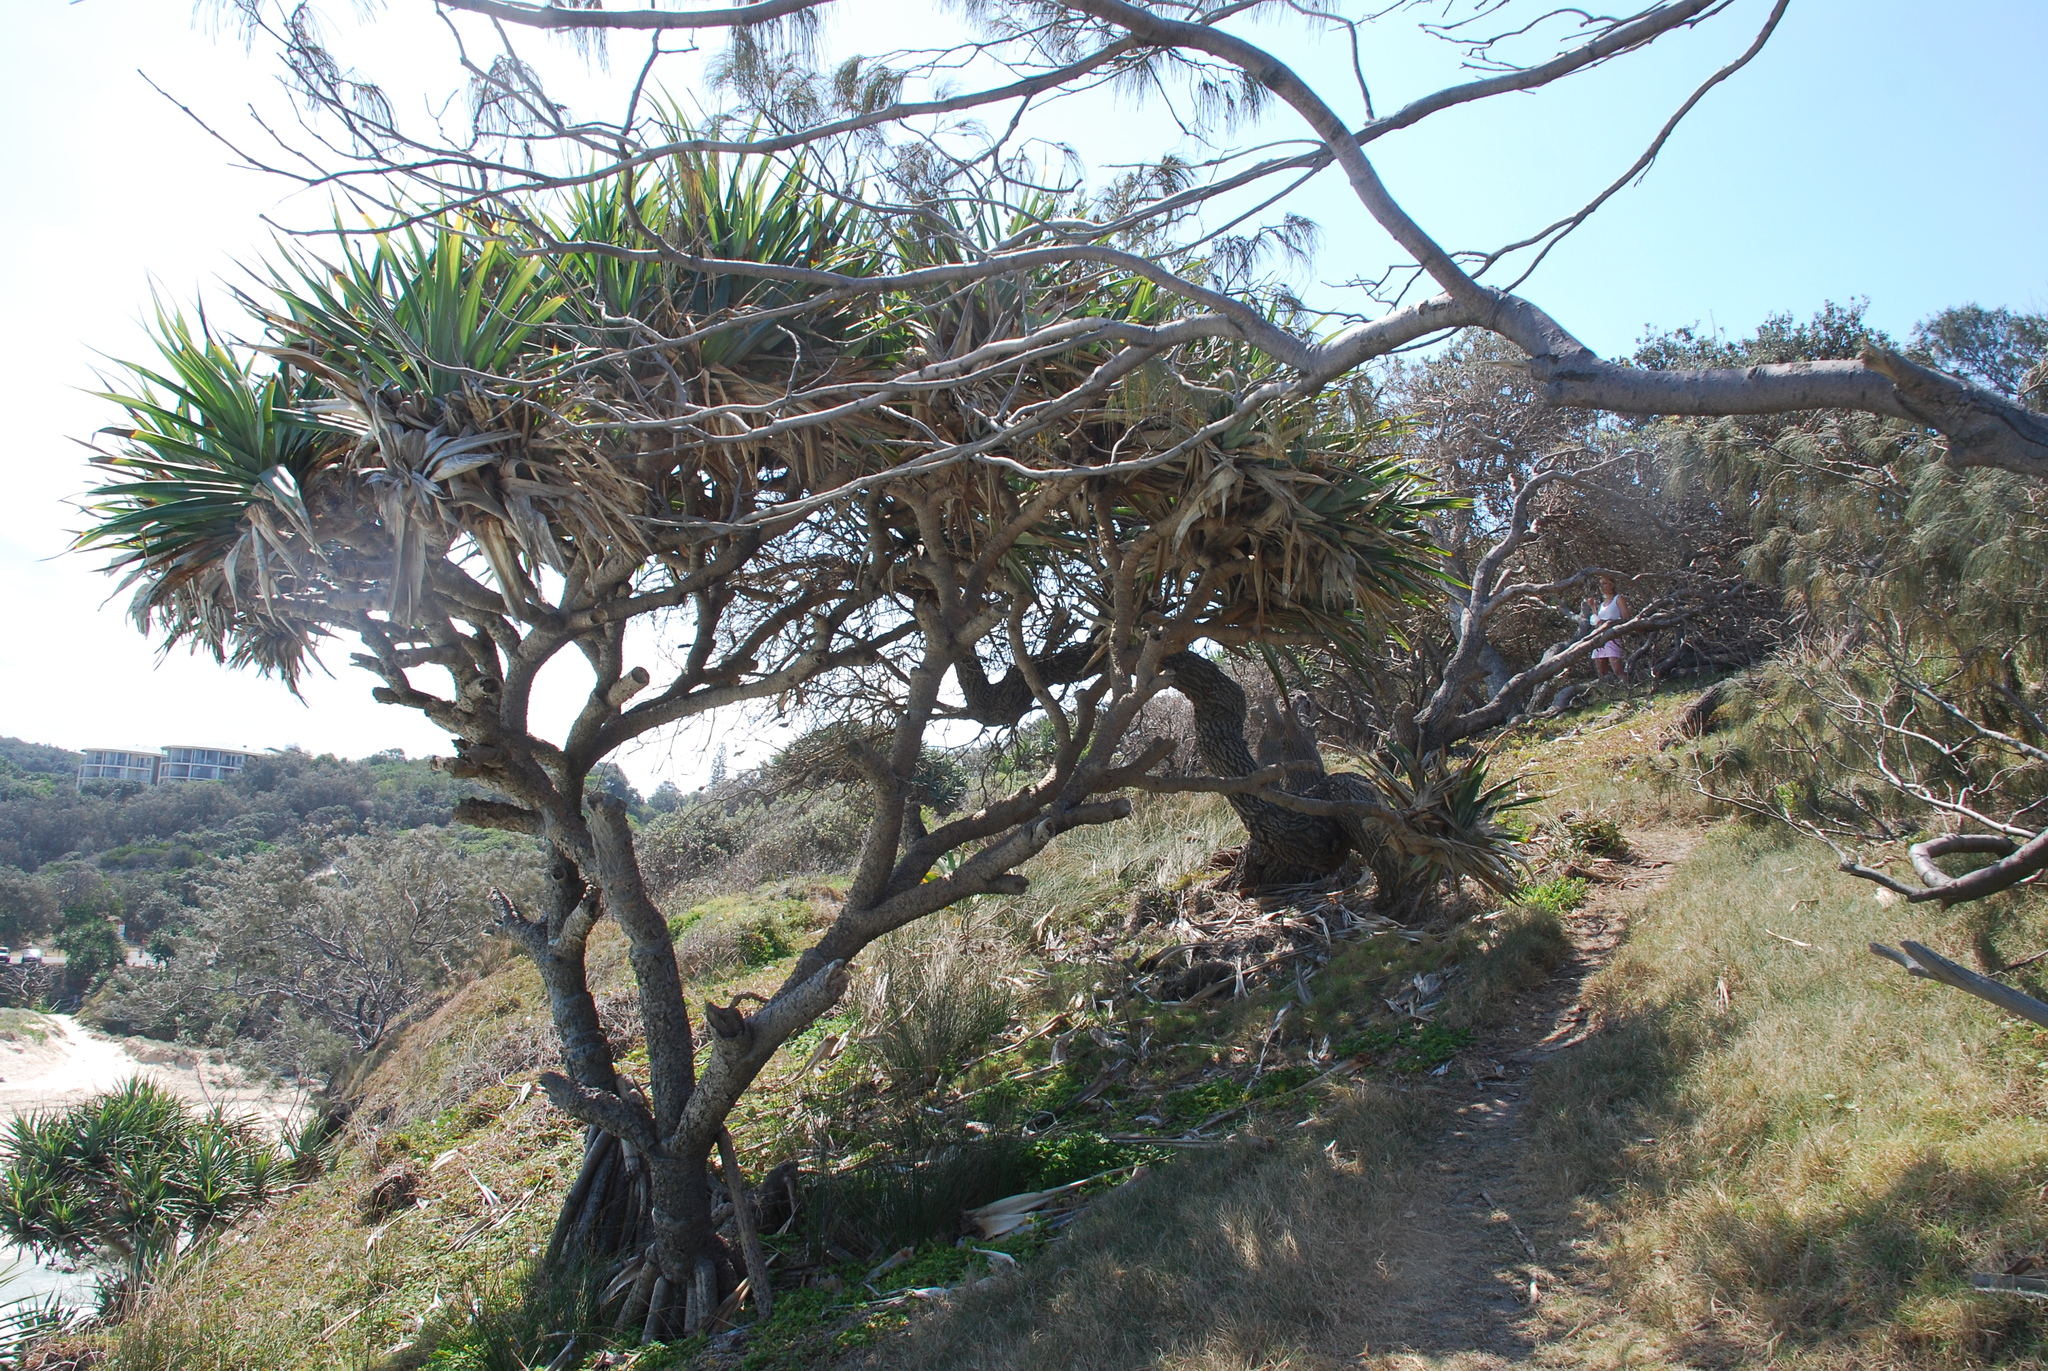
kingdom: Plantae
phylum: Tracheophyta
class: Liliopsida
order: Pandanales
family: Pandanaceae
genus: Pandanus
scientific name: Pandanus tectorius
